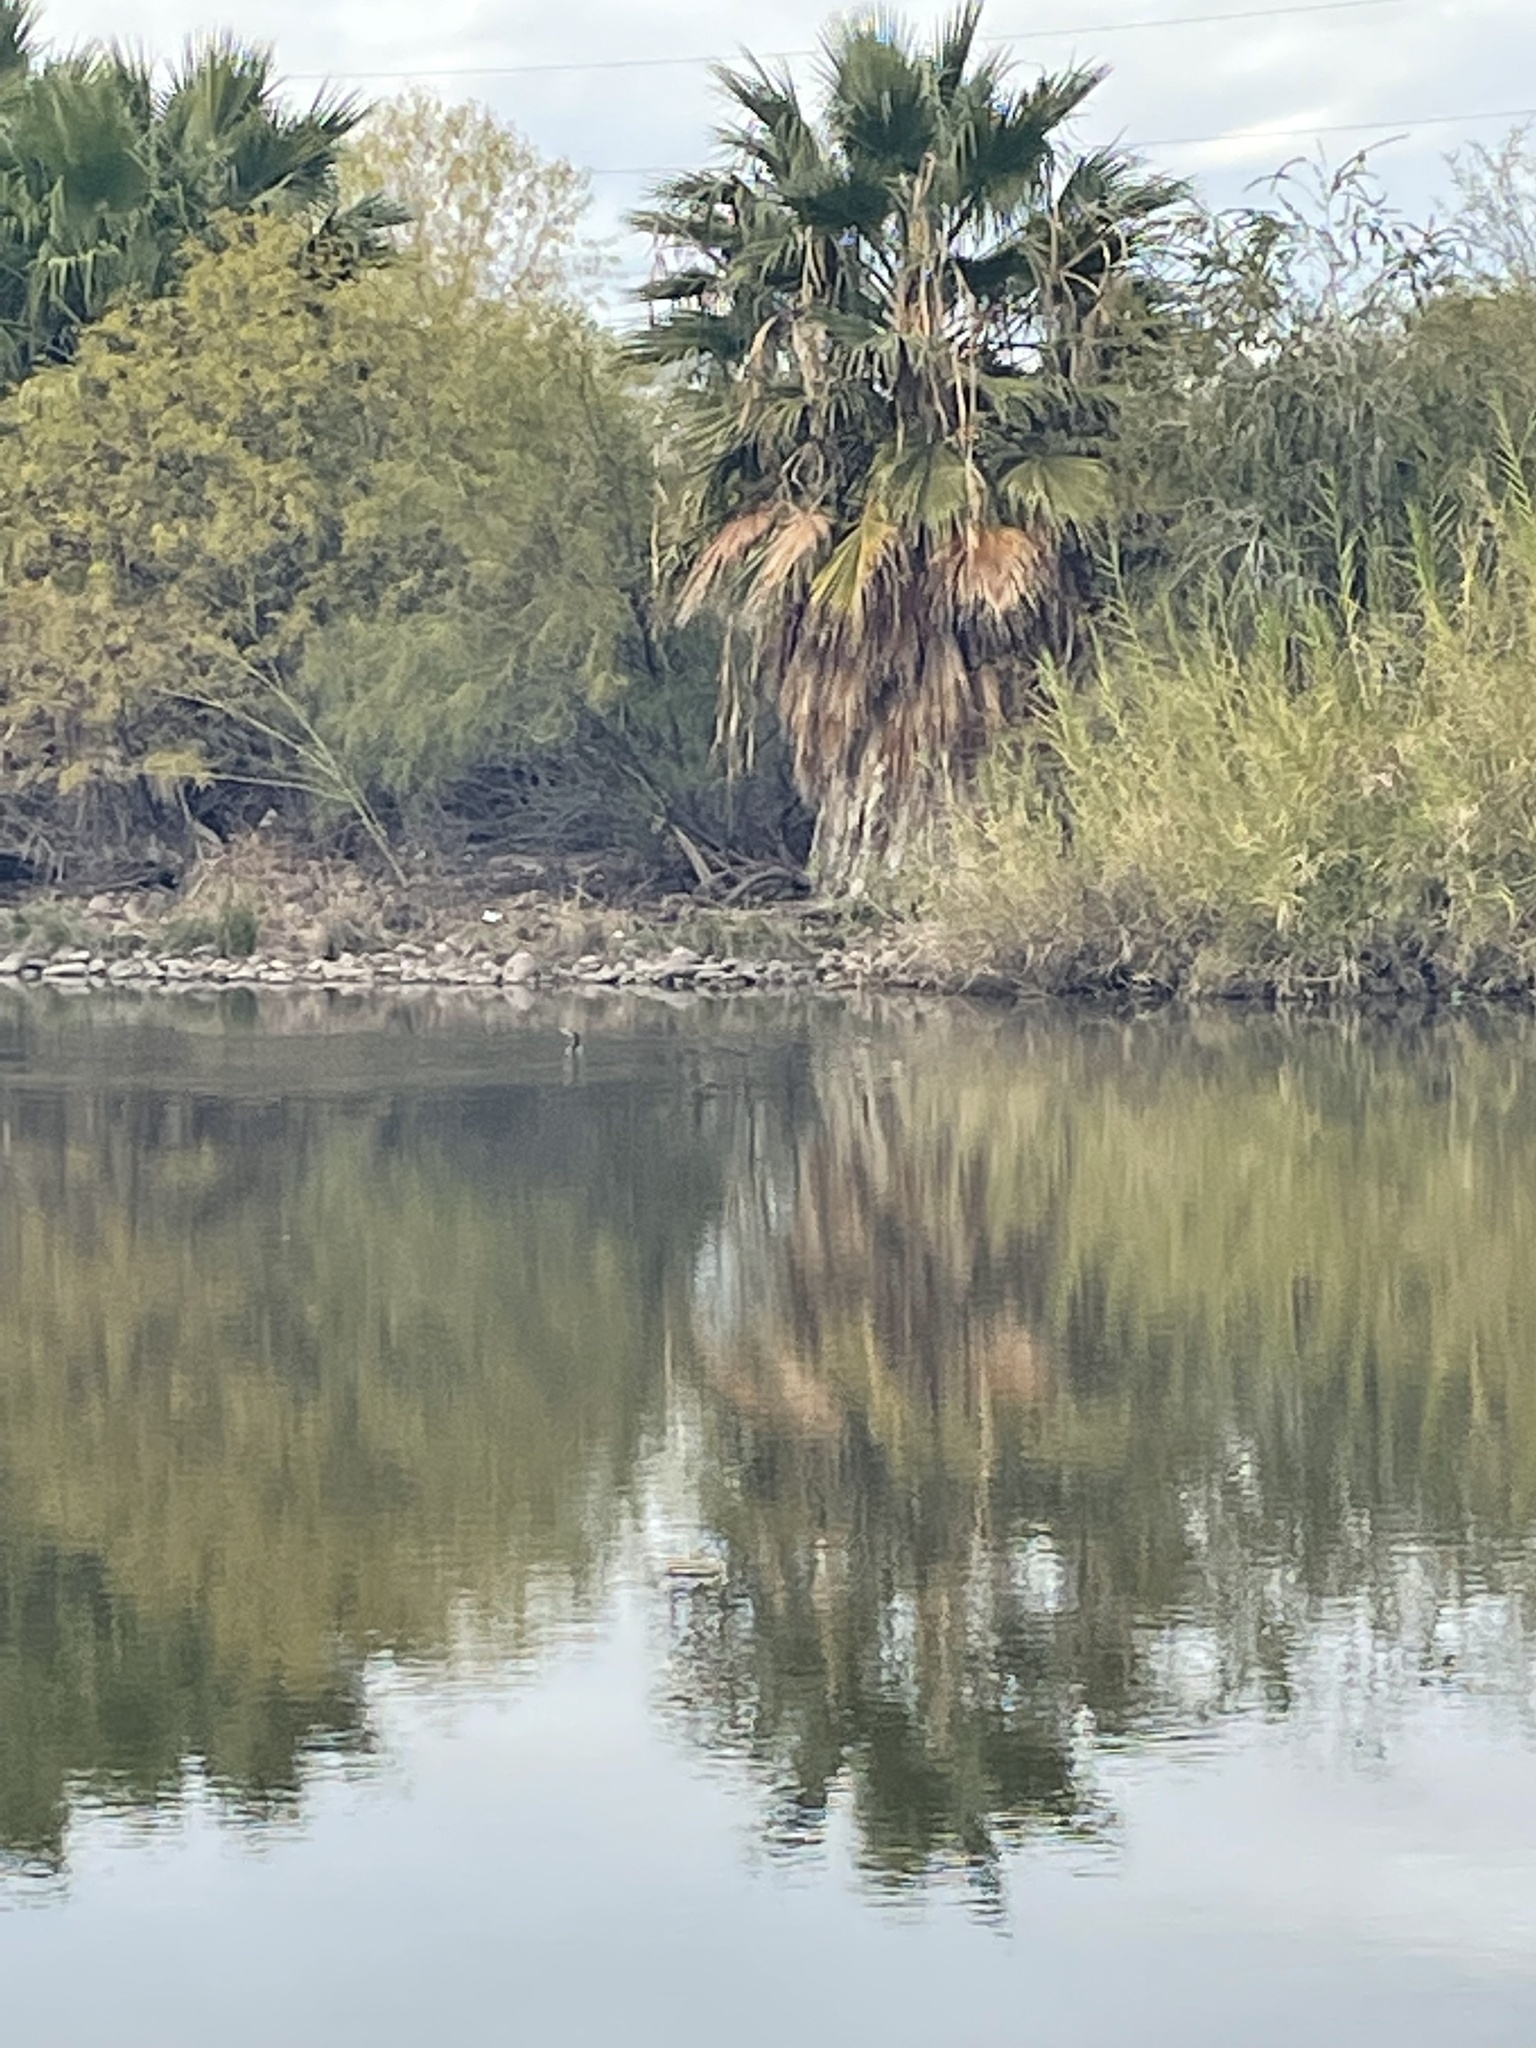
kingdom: Animalia
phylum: Chordata
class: Aves
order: Suliformes
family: Phalacrocoracidae
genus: Phalacrocorax
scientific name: Phalacrocorax brasilianus
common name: Neotropic cormorant
